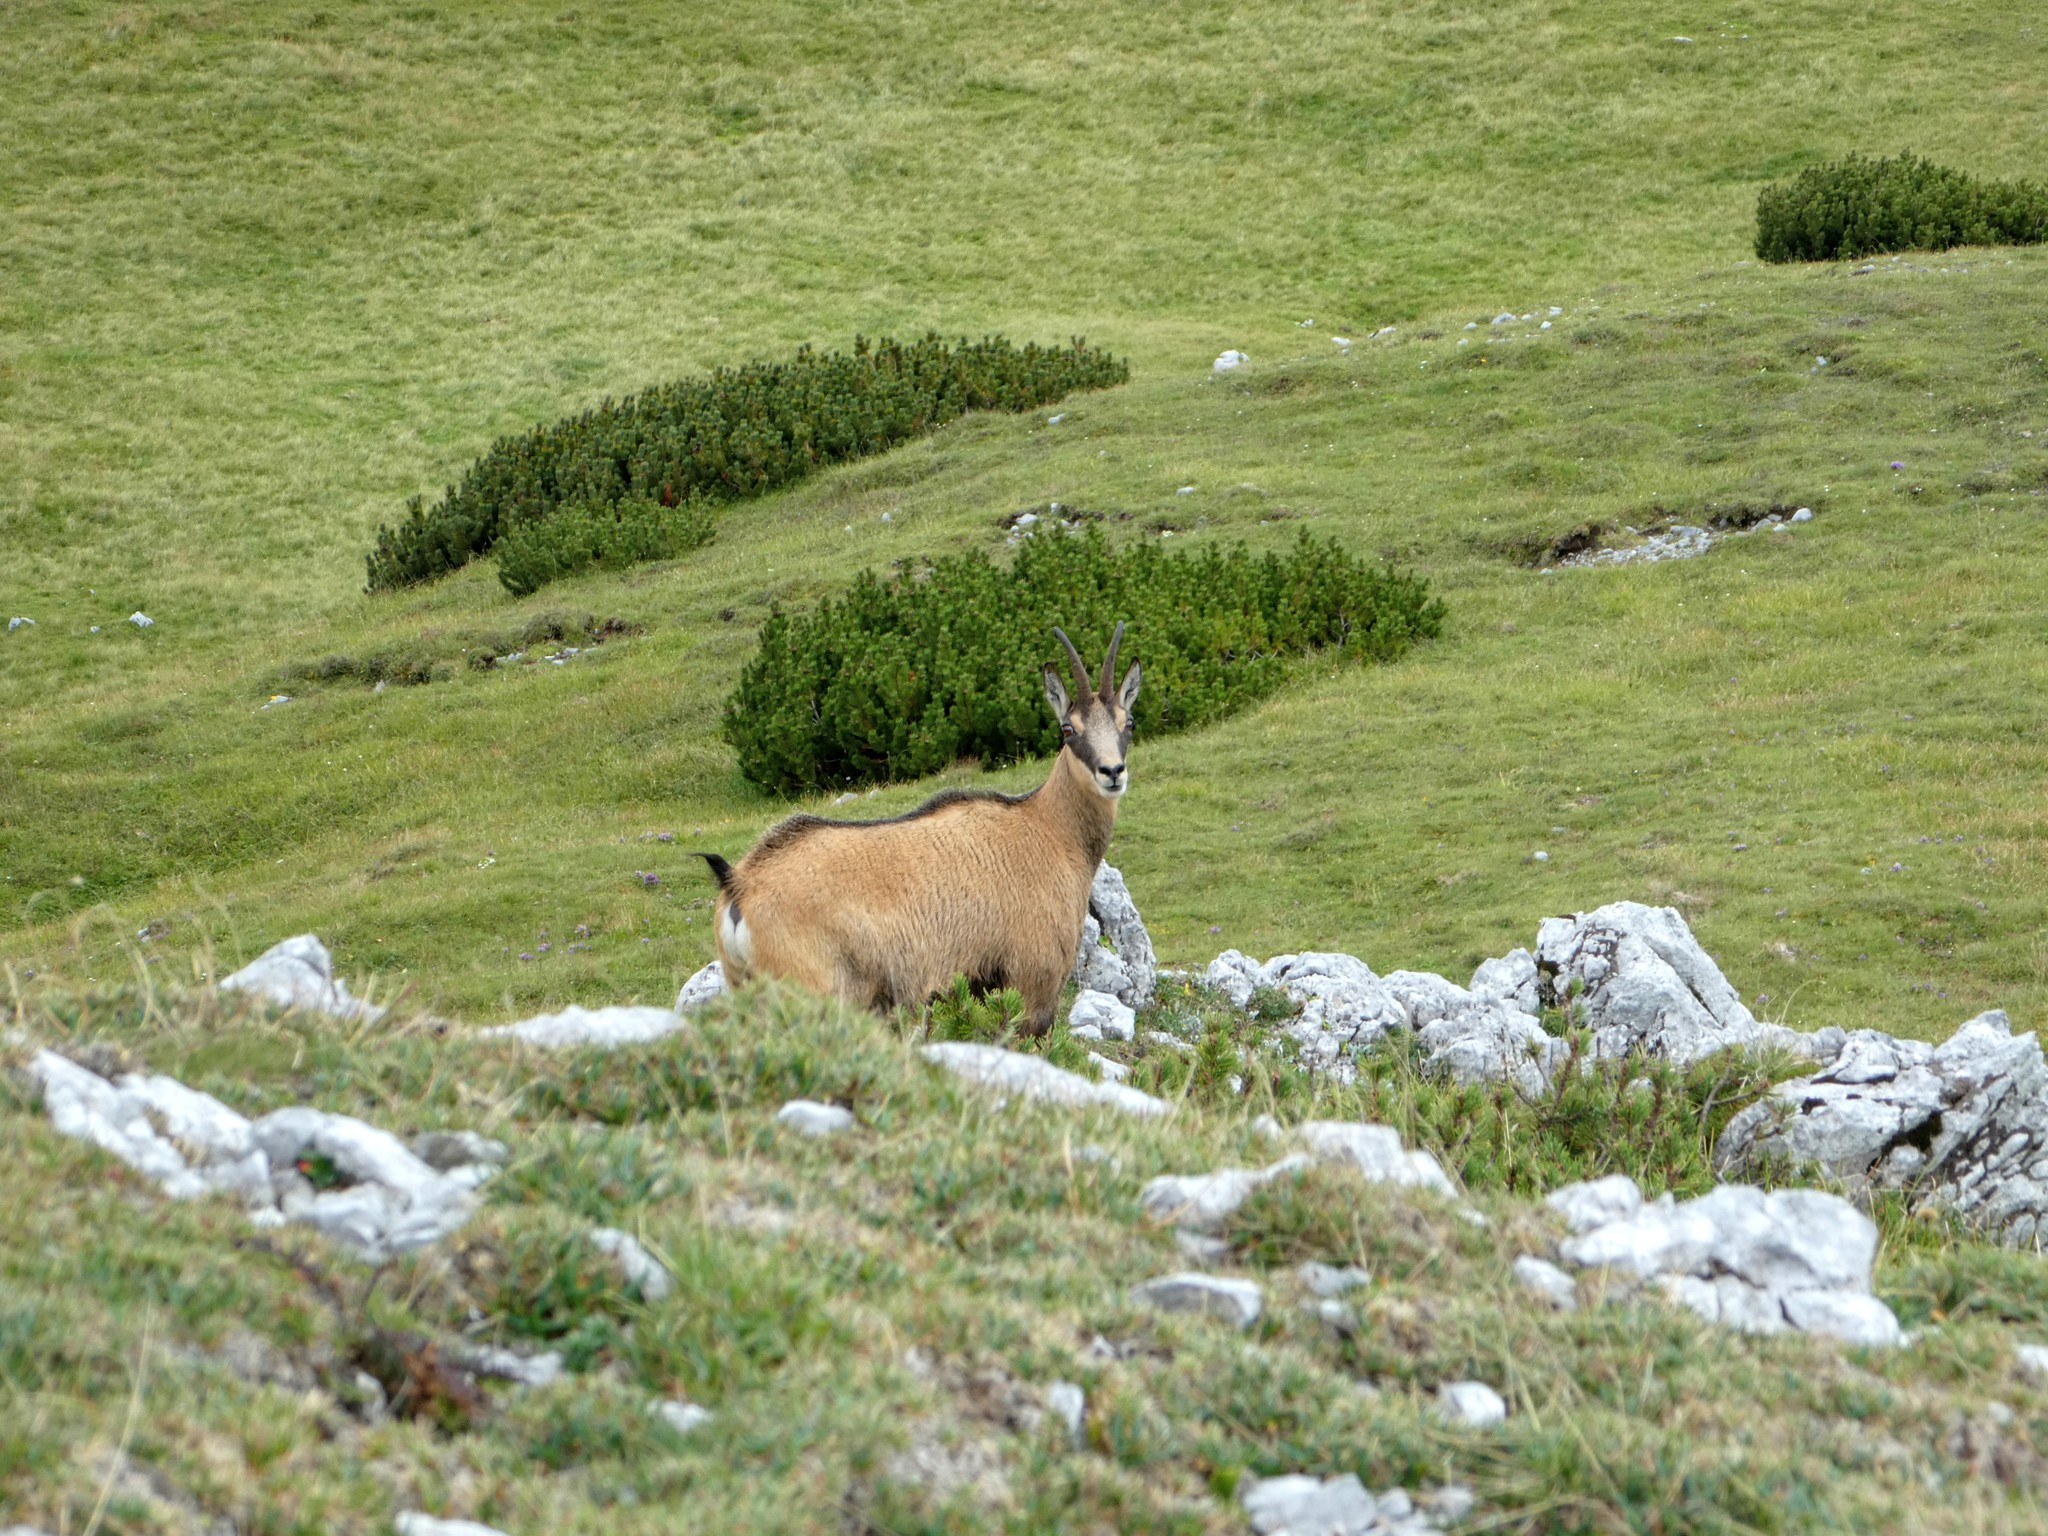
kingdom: Animalia
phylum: Chordata
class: Mammalia
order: Artiodactyla
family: Bovidae
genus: Rupicapra
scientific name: Rupicapra rupicapra
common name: Chamois
